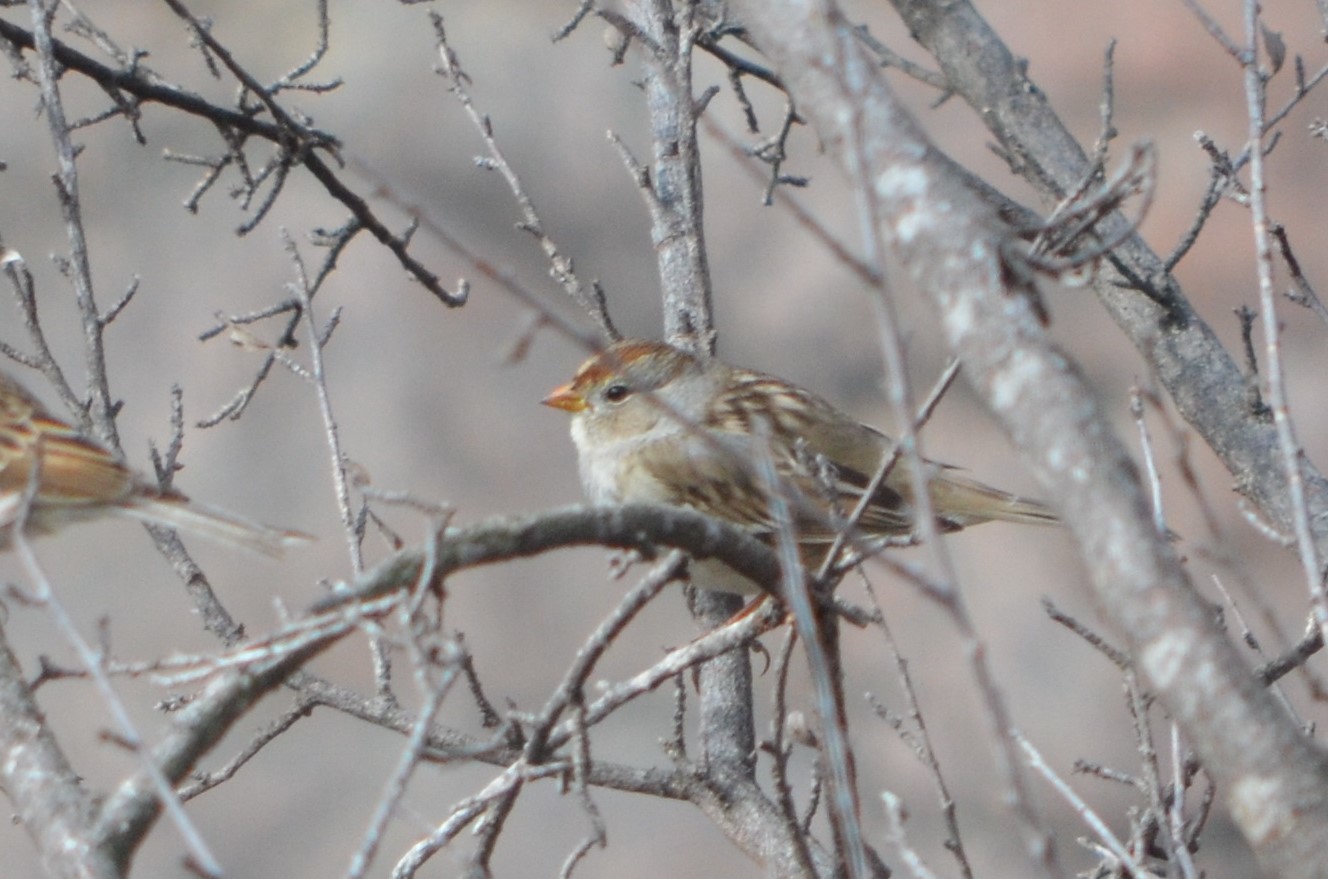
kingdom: Animalia
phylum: Chordata
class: Aves
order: Passeriformes
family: Passerellidae
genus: Zonotrichia
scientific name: Zonotrichia leucophrys
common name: White-crowned sparrow
